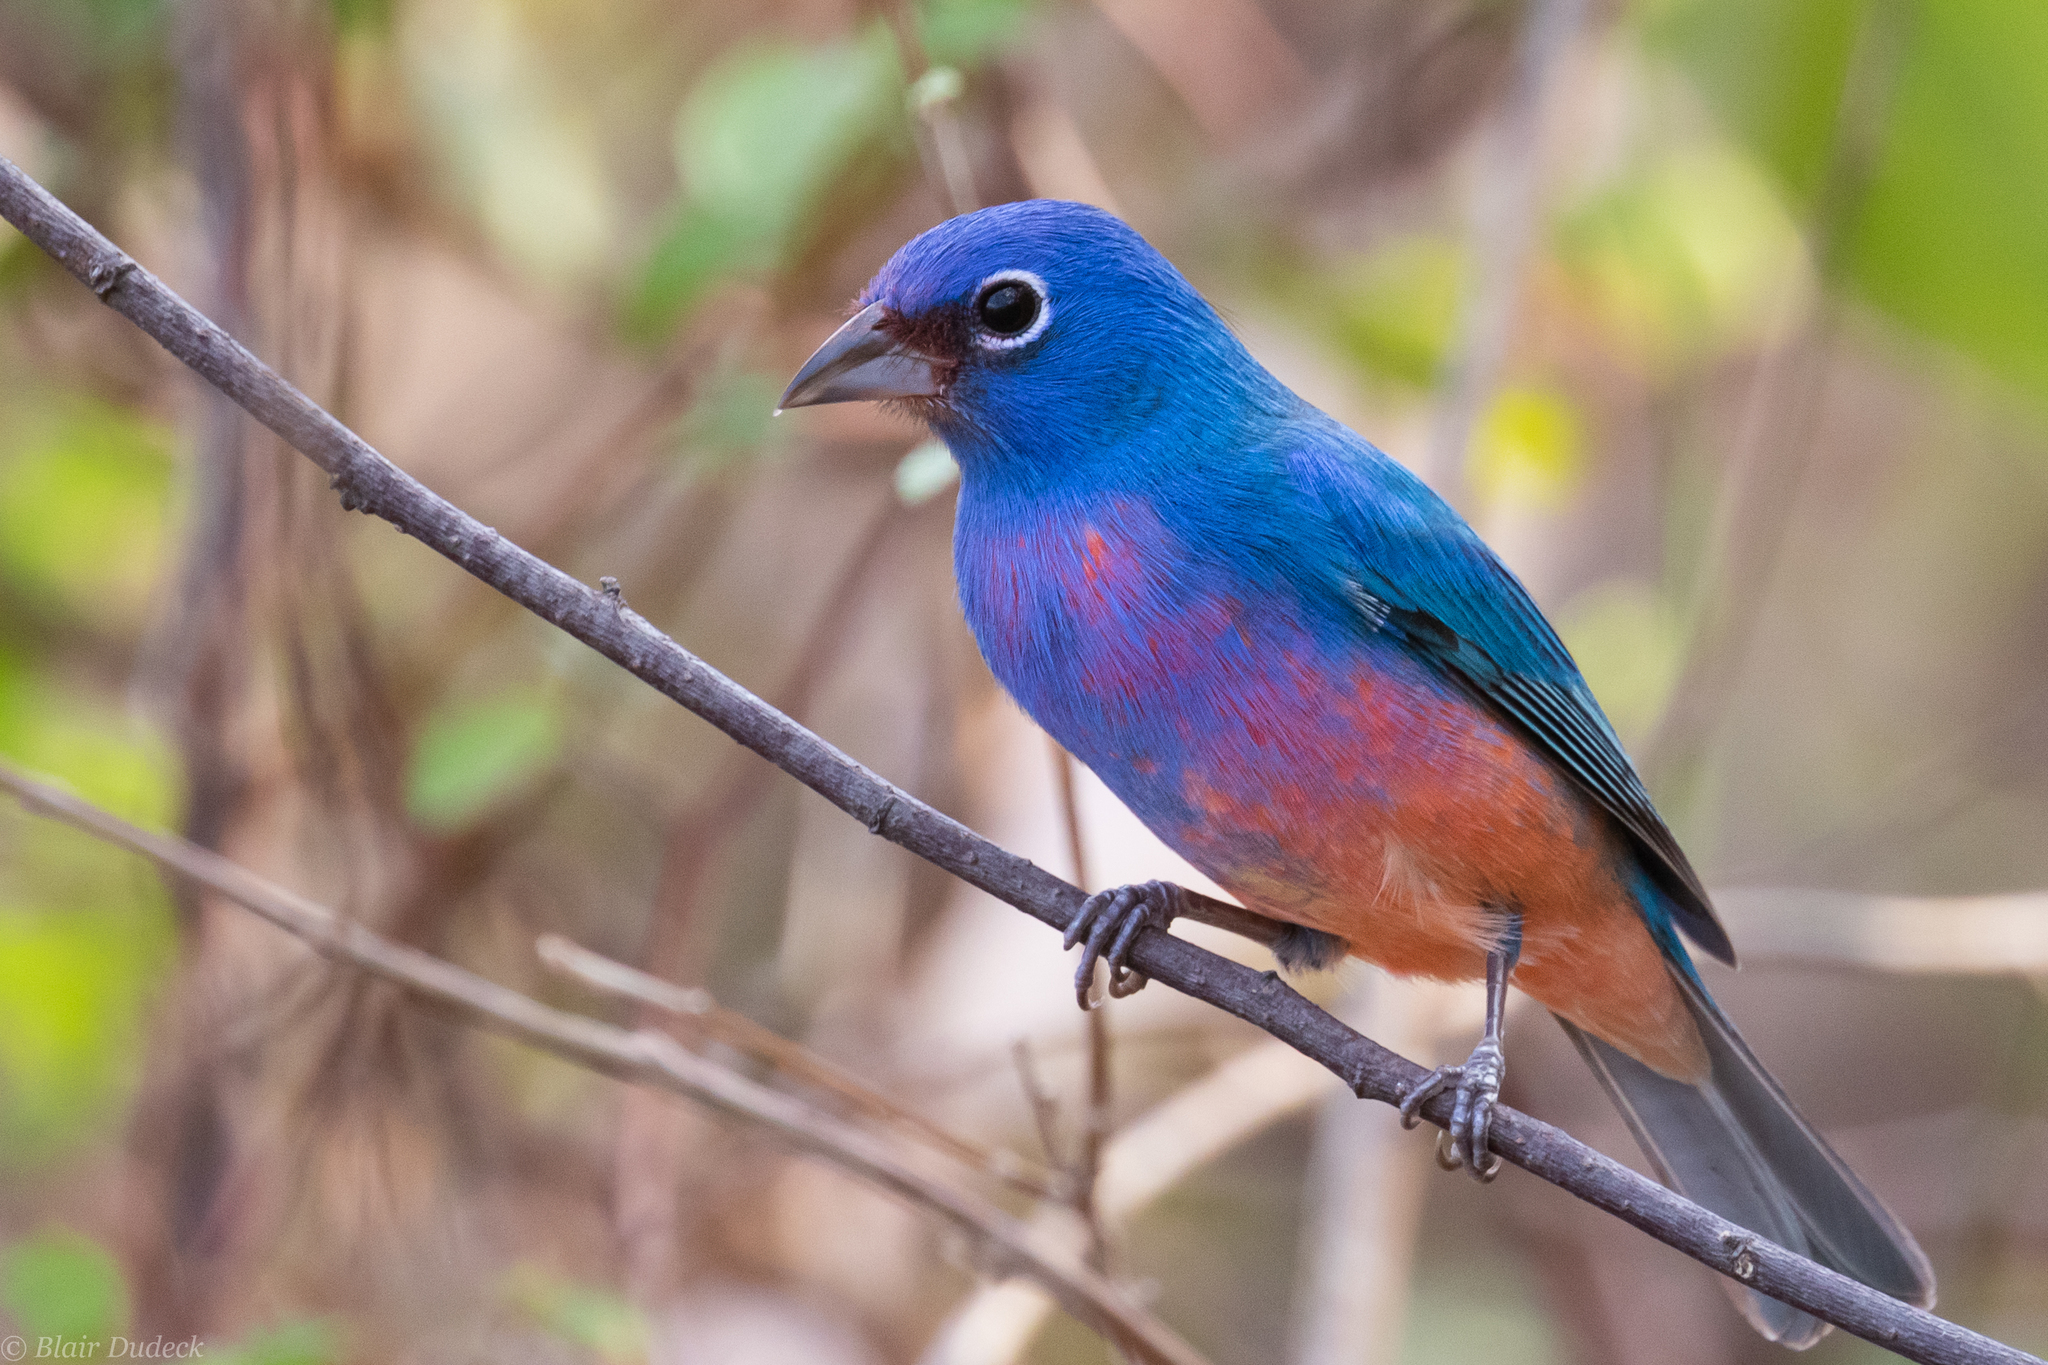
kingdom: Animalia
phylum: Chordata
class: Aves
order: Passeriformes
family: Cardinalidae
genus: Passerina
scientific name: Passerina rositae
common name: Rose-bellied bunting
